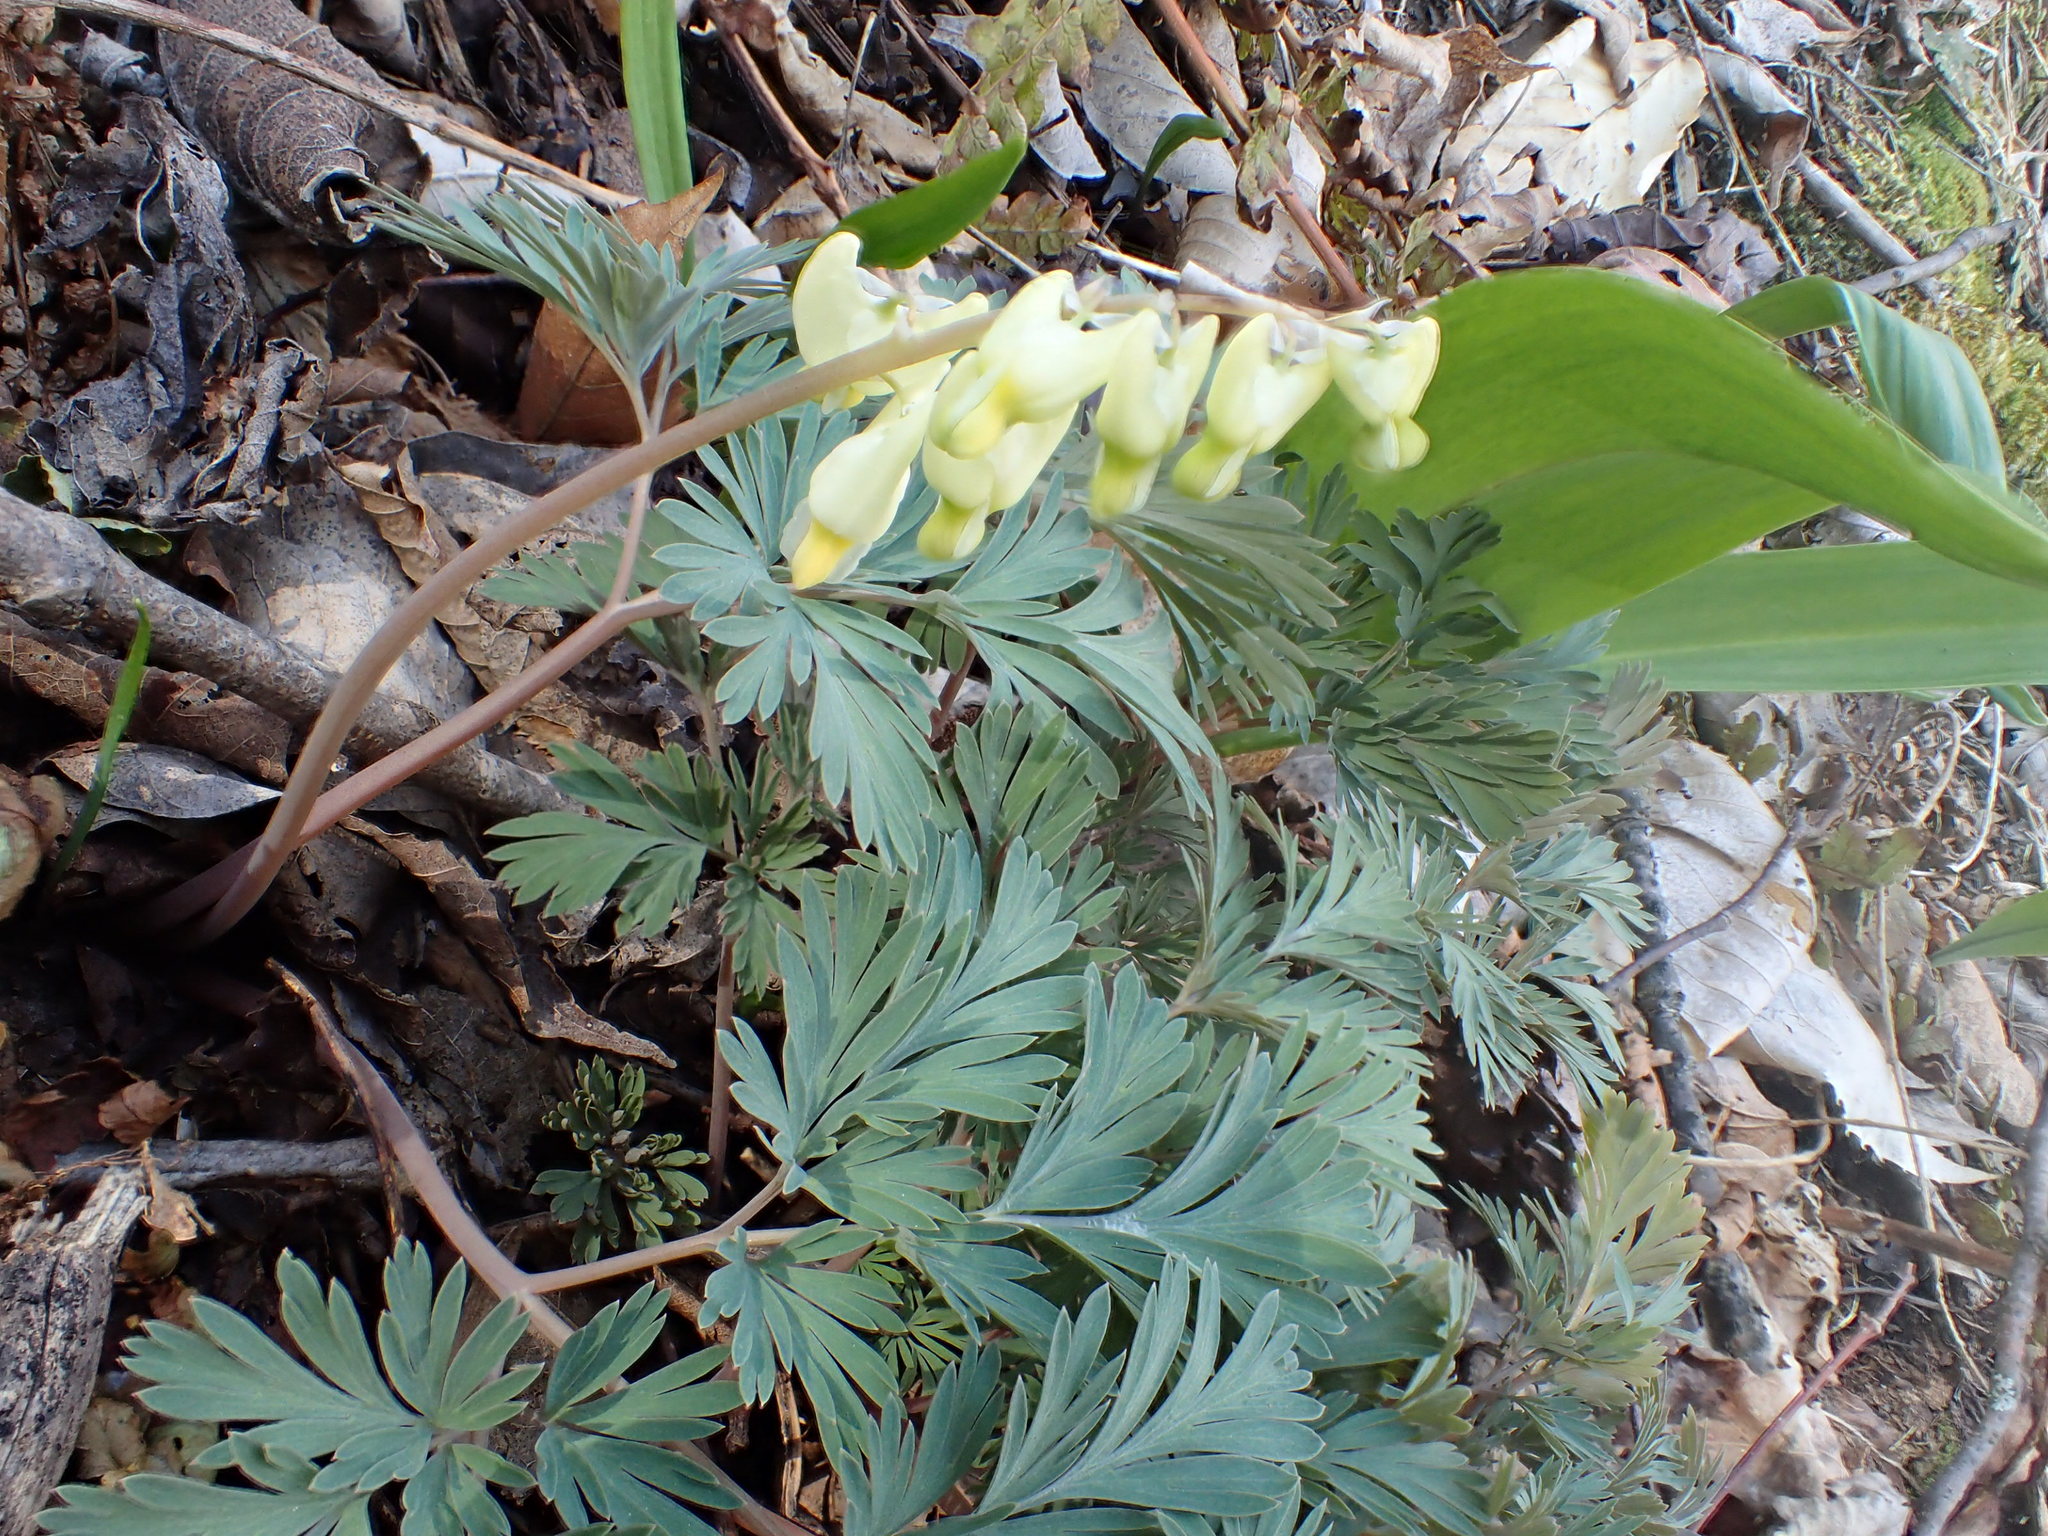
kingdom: Plantae
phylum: Tracheophyta
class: Magnoliopsida
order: Ranunculales
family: Papaveraceae
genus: Dicentra
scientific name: Dicentra cucullaria
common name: Dutchman's breeches
